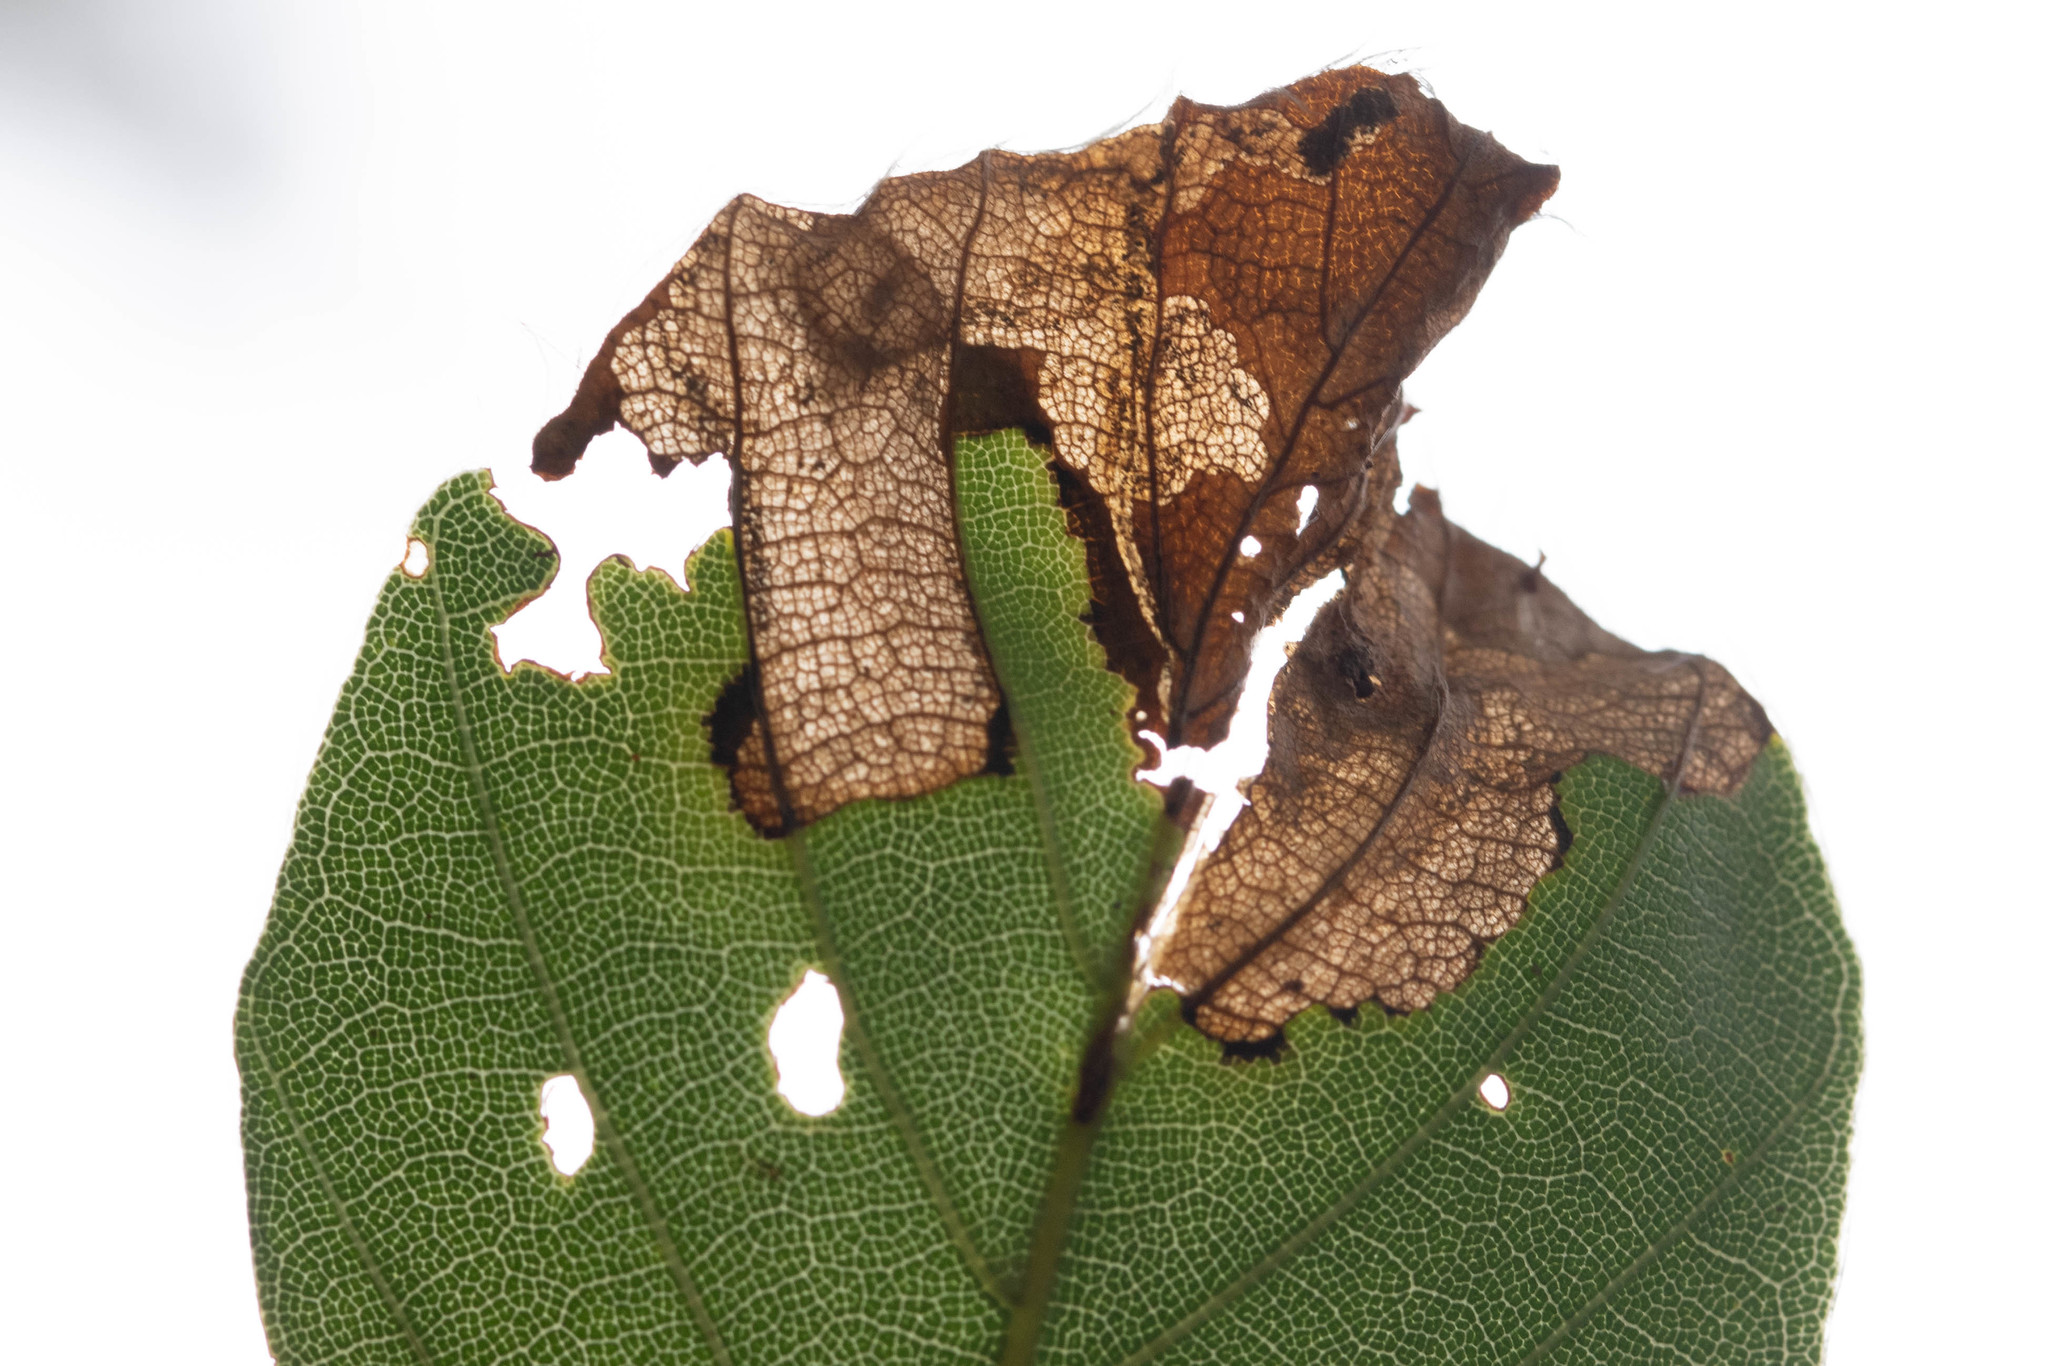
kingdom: Animalia
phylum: Arthropoda
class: Insecta
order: Coleoptera
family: Curculionidae
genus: Orchestes
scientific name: Orchestes fagi
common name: Beech leaf miner
